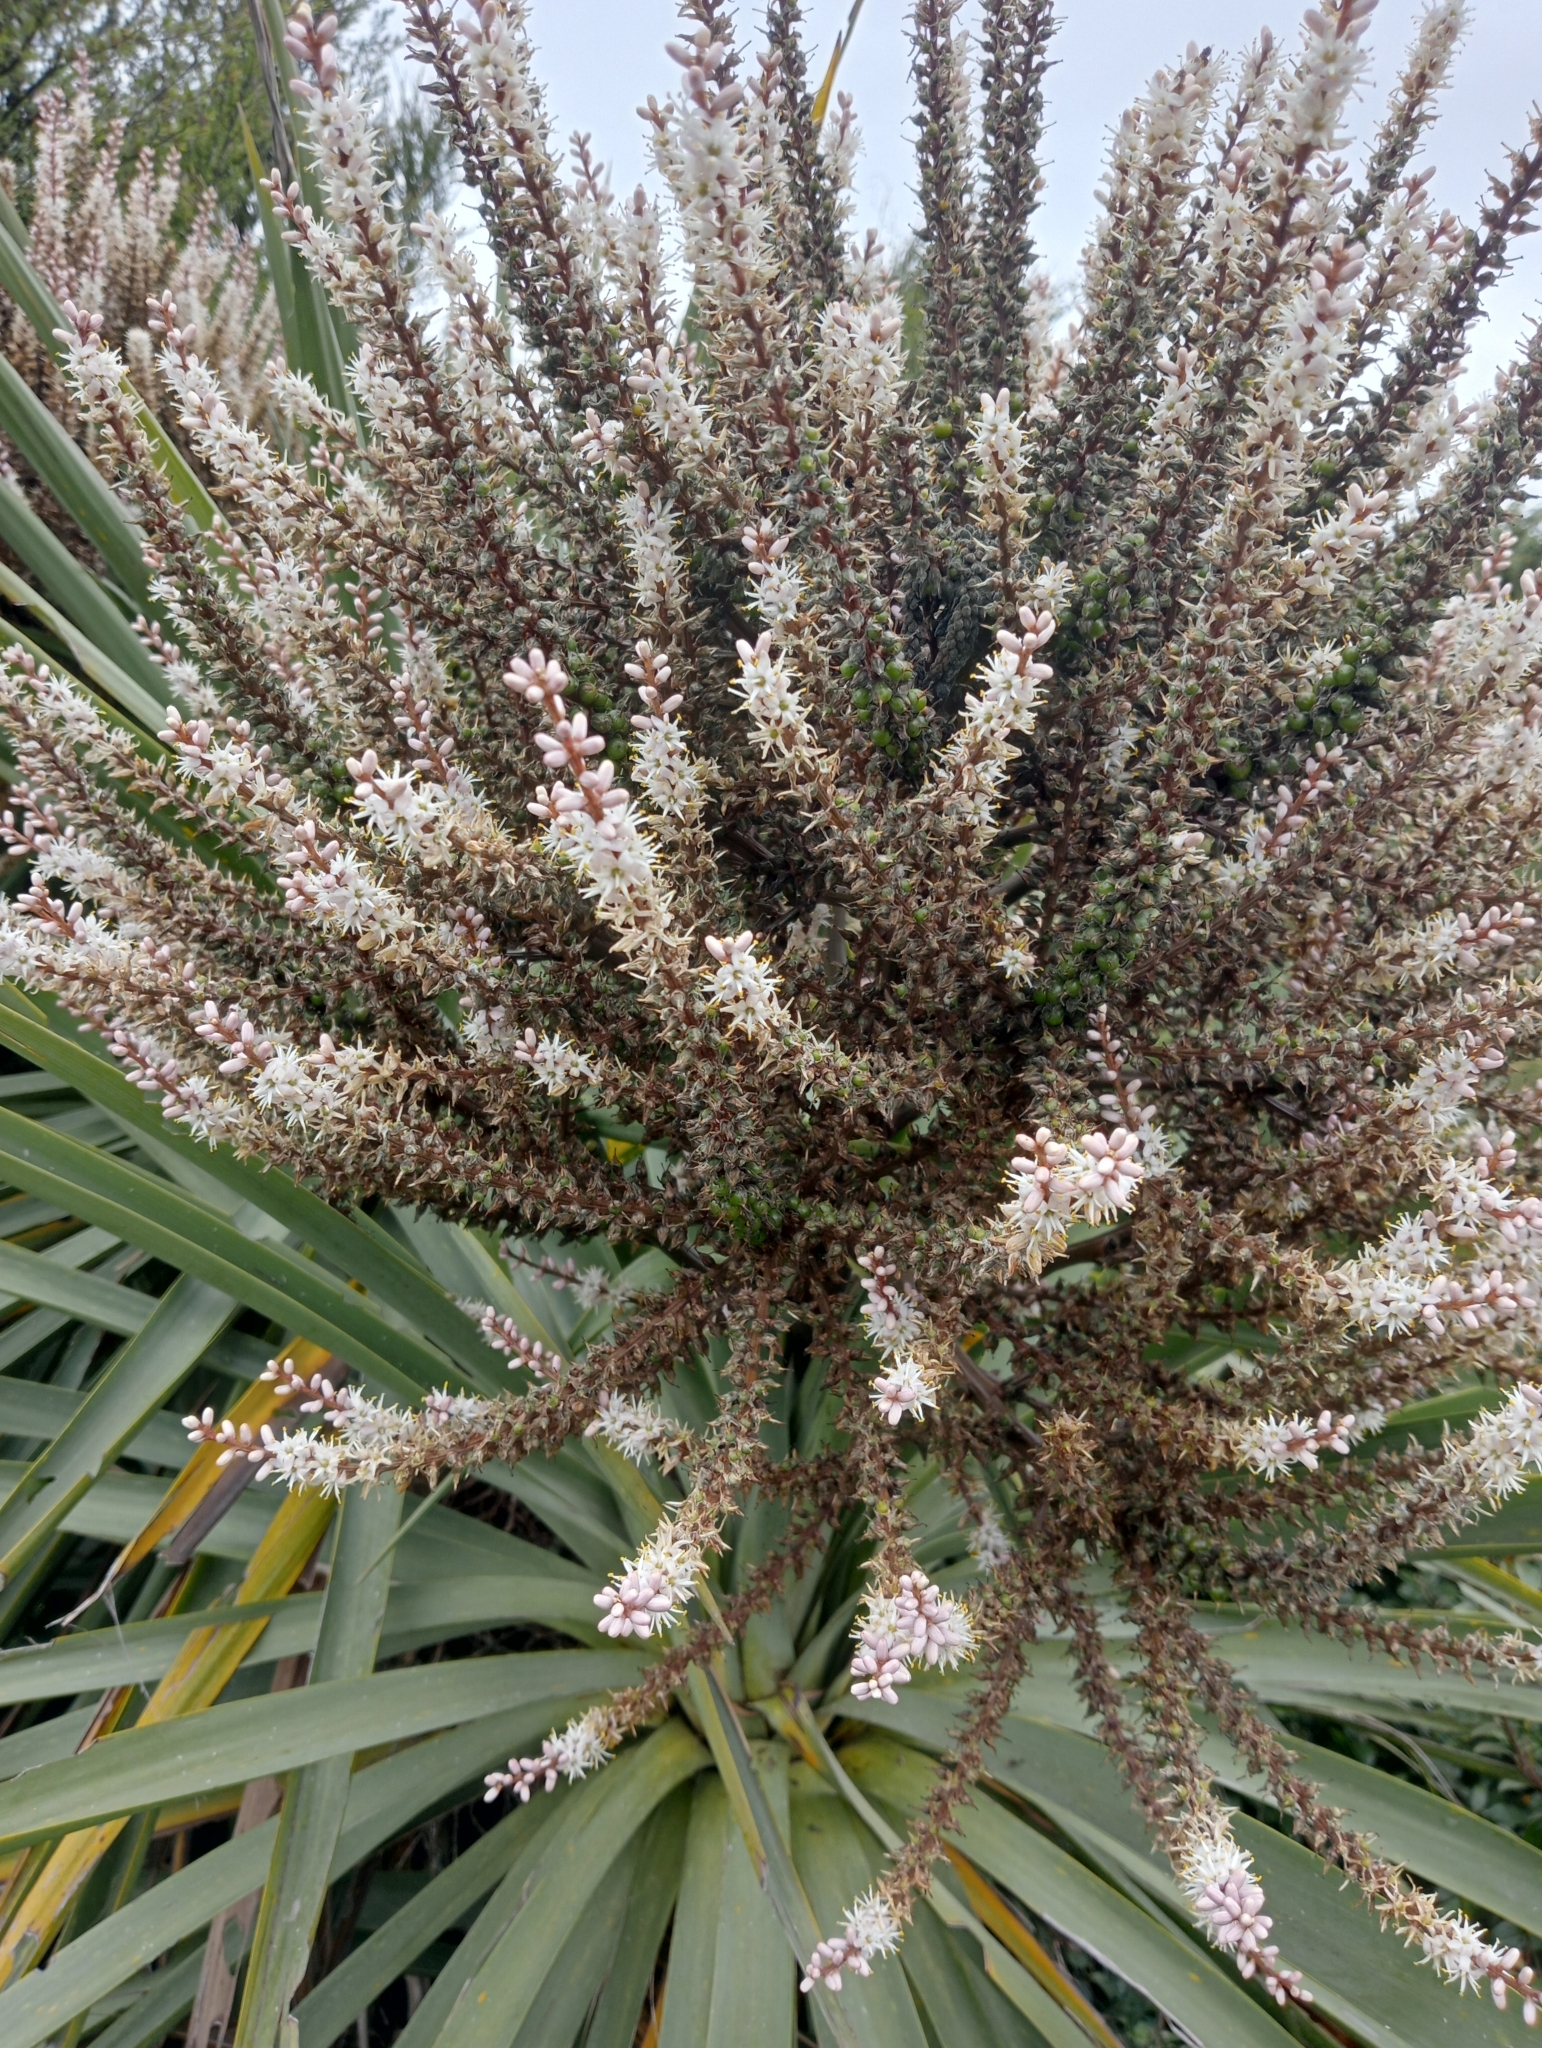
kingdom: Plantae
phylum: Tracheophyta
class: Liliopsida
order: Asparagales
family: Asparagaceae
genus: Cordyline
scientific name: Cordyline australis
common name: Cabbage-palm
